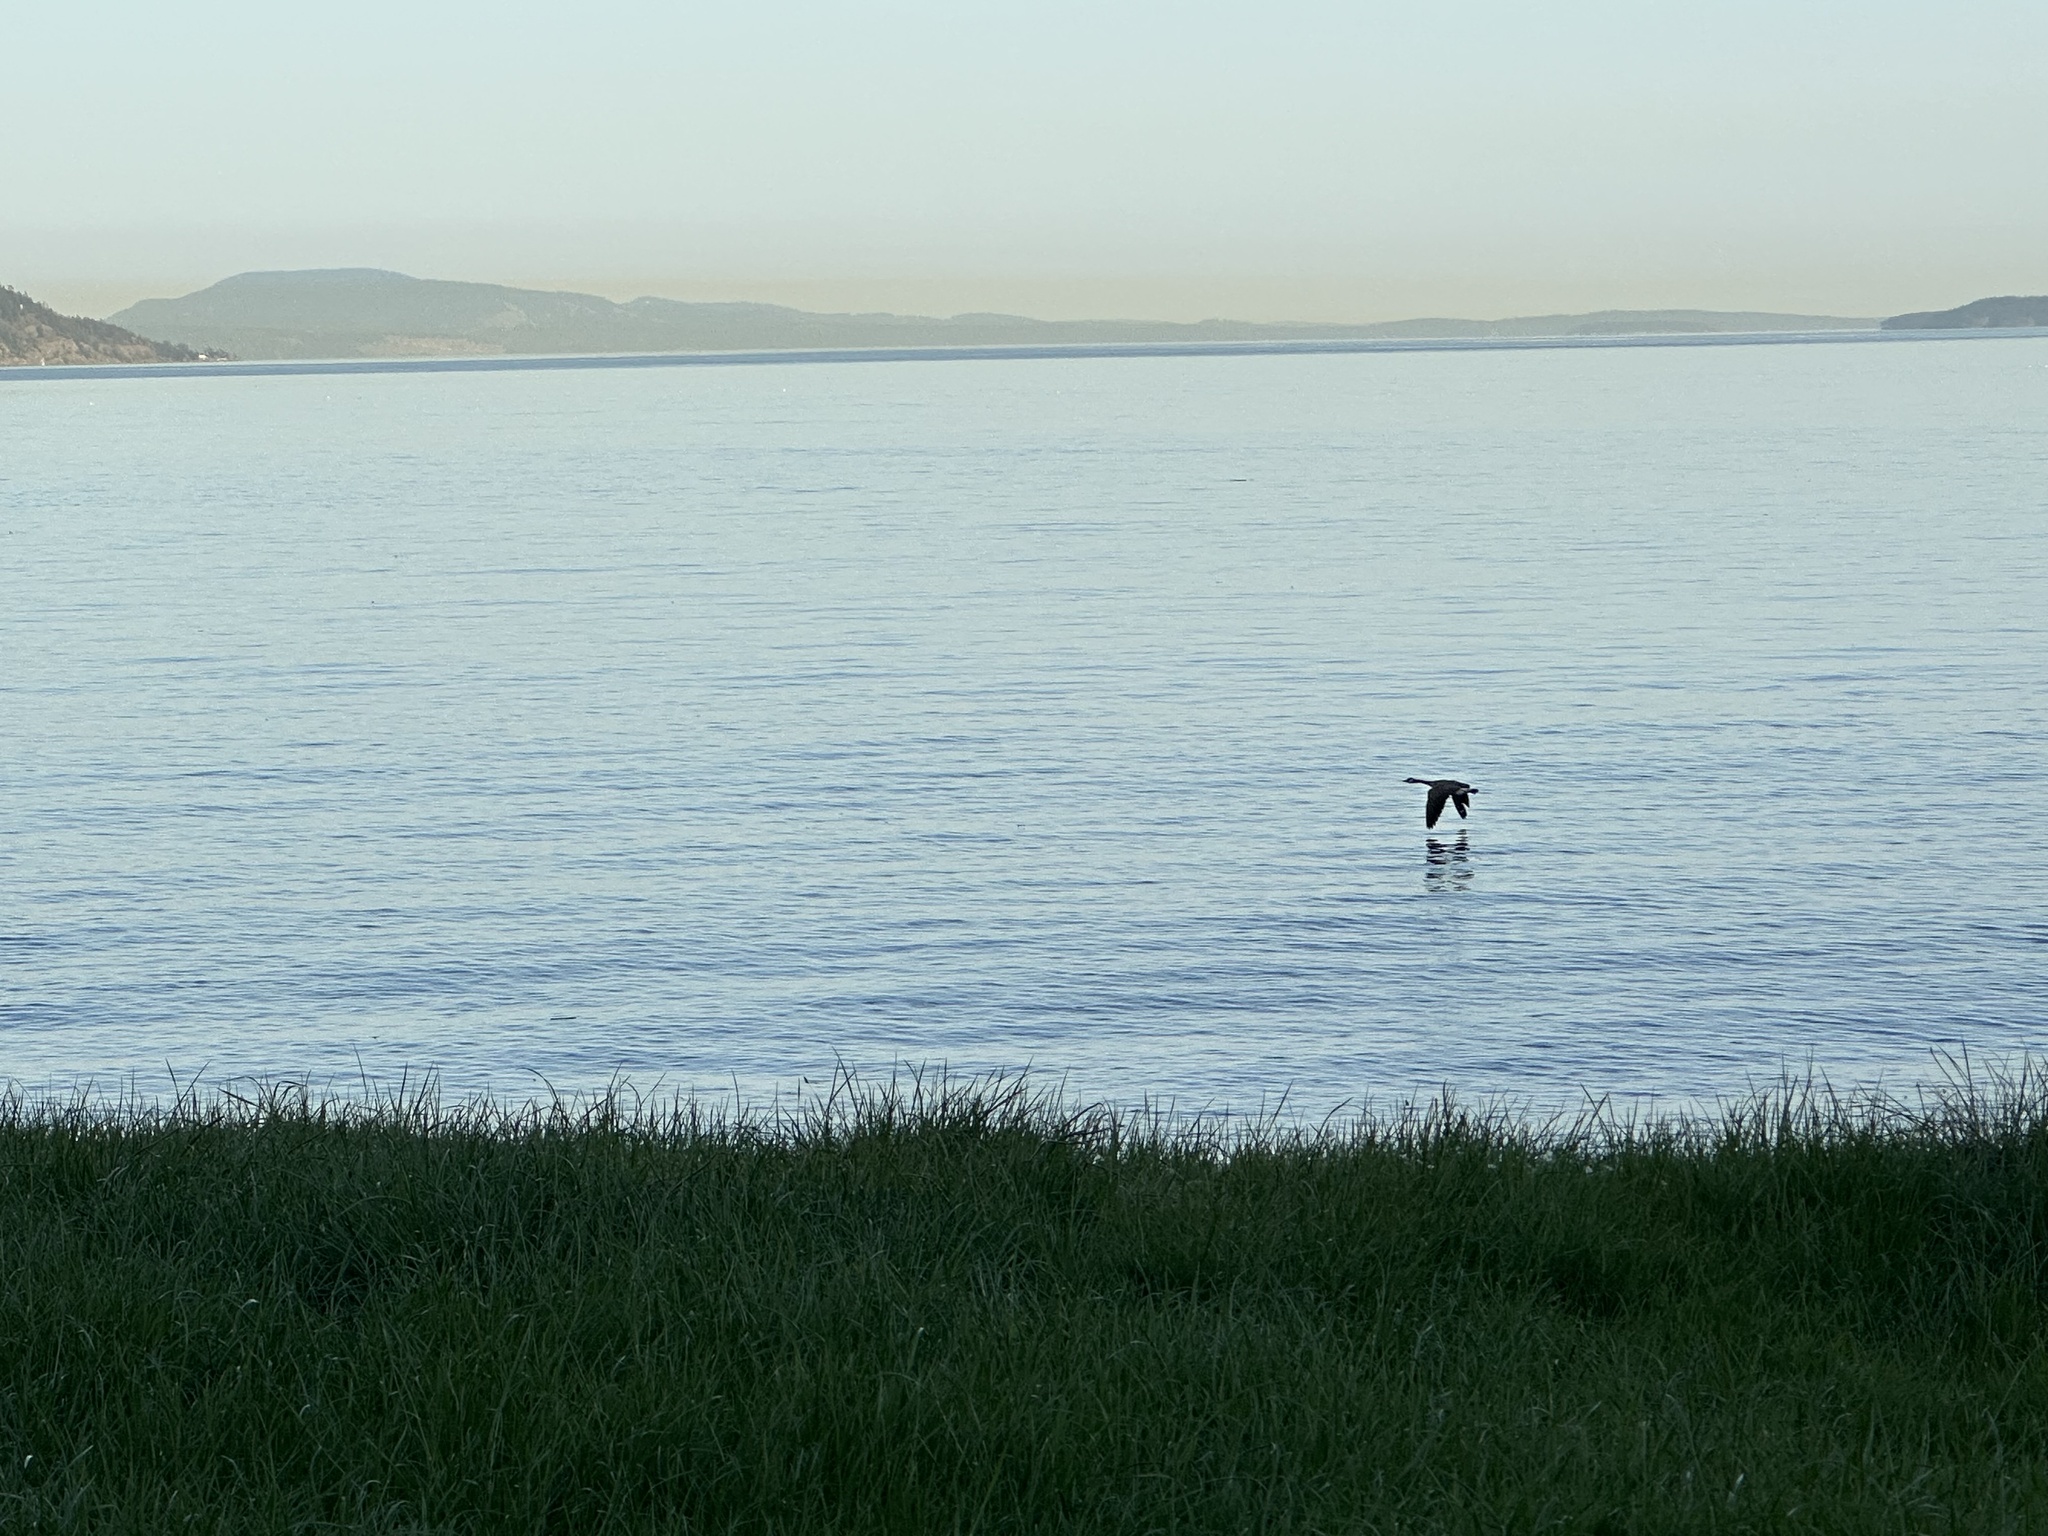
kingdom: Animalia
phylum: Chordata
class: Aves
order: Anseriformes
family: Anatidae
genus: Branta
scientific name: Branta canadensis
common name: Canada goose
